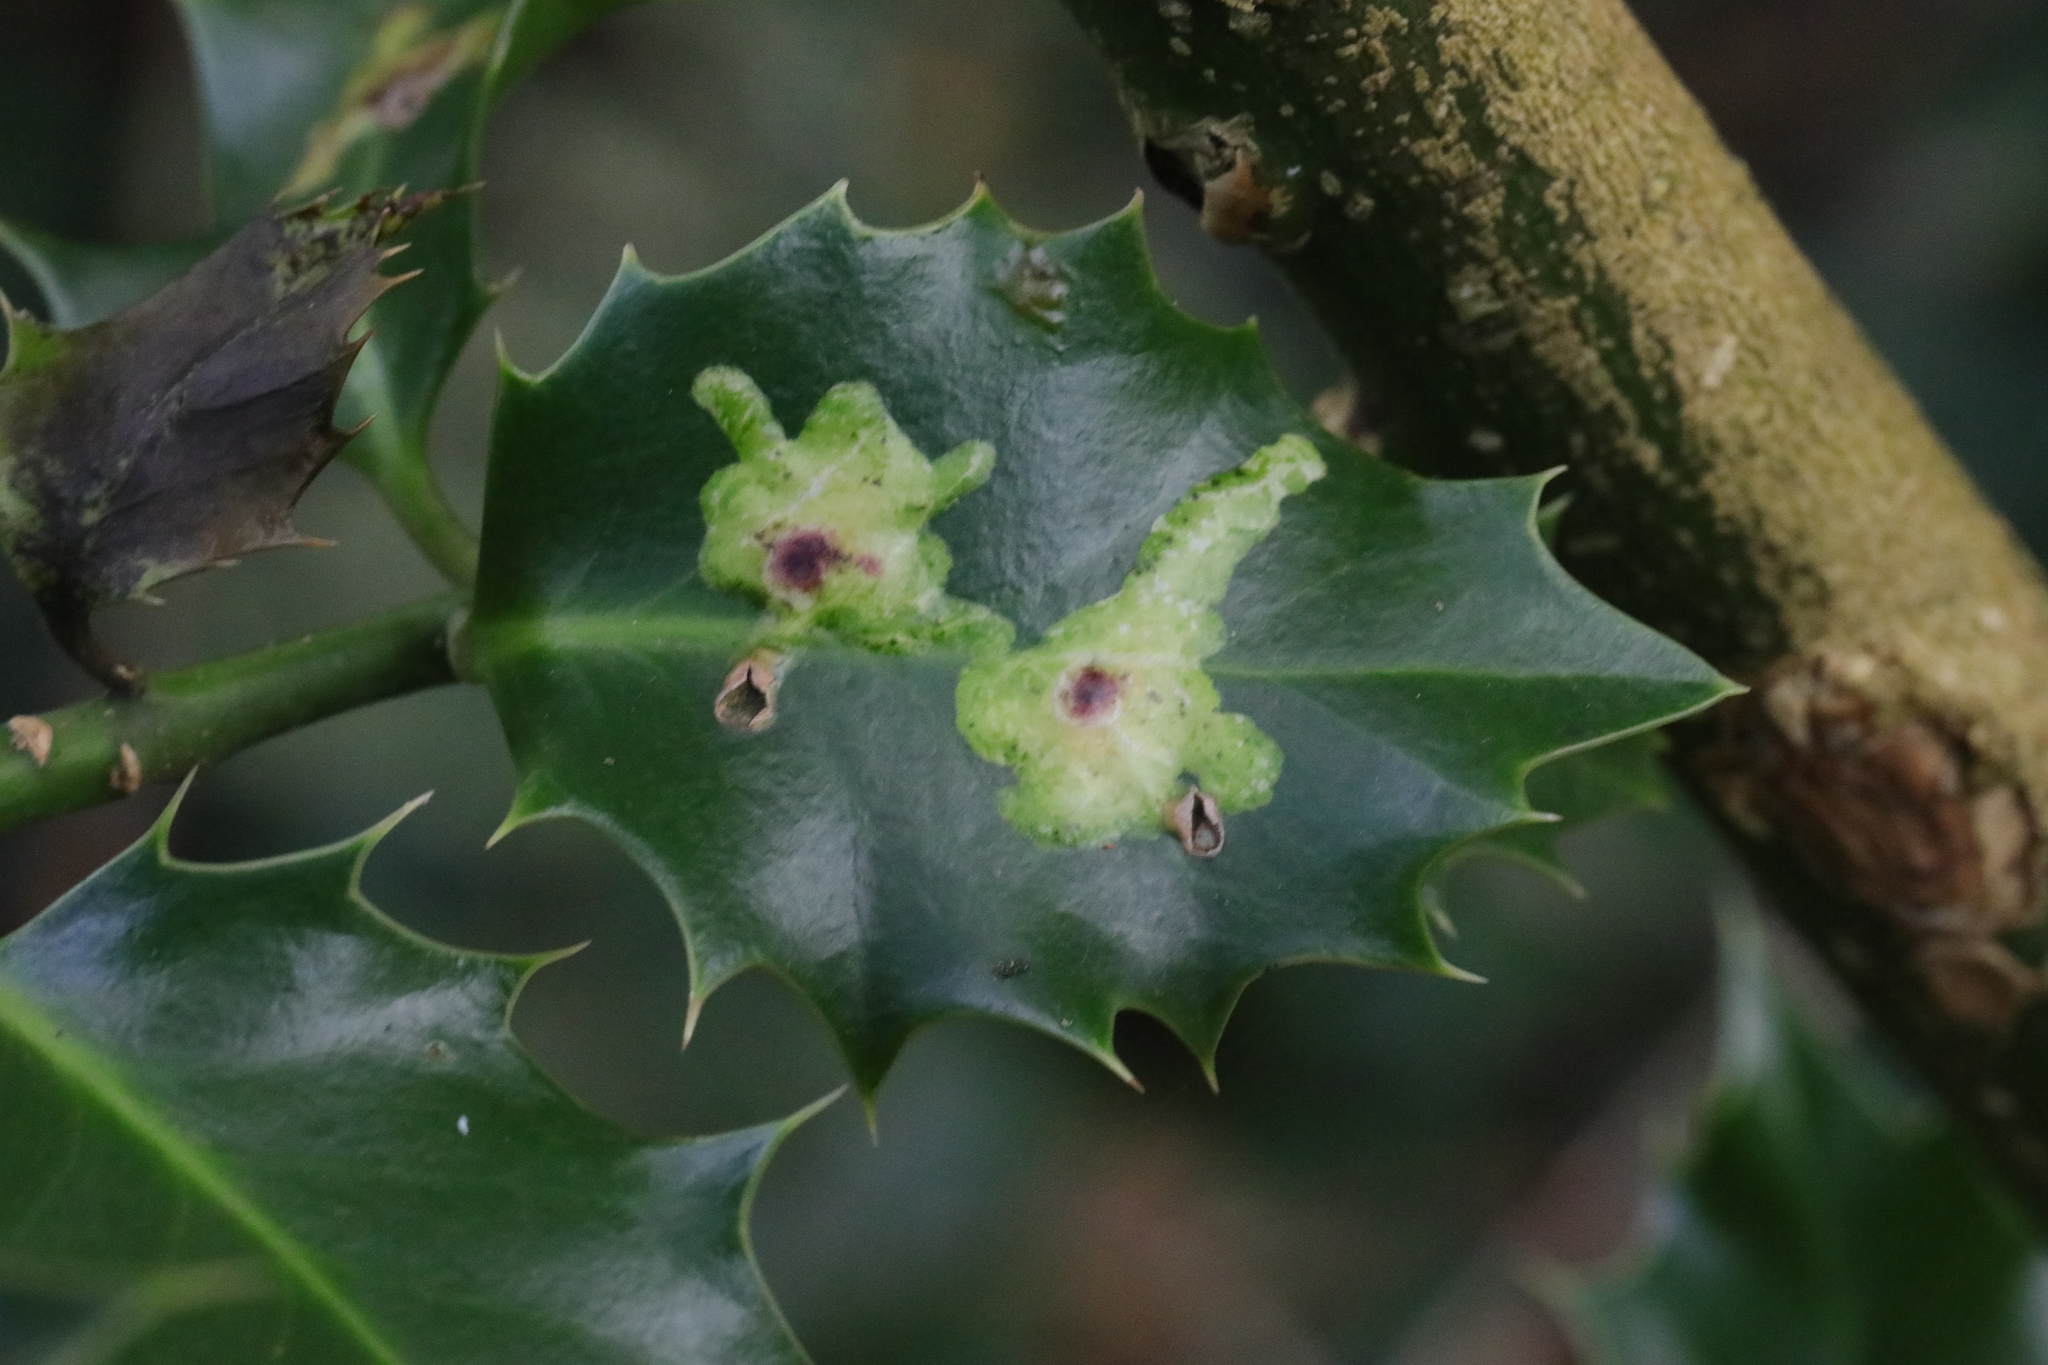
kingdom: Animalia
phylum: Arthropoda
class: Insecta
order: Diptera
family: Agromyzidae
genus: Phytomyza
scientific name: Phytomyza ilicis
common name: Holly leafminer
